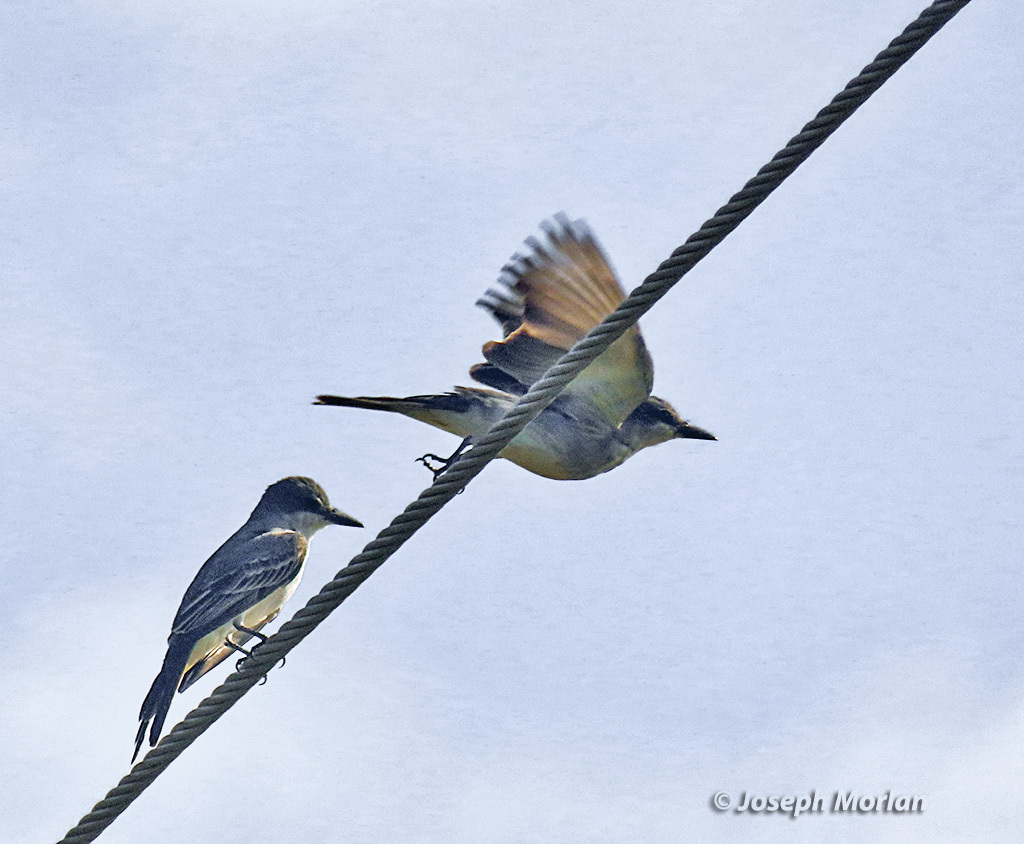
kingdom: Animalia
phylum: Chordata
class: Aves
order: Passeriformes
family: Tyrannidae
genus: Tyrannus
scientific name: Tyrannus dominicensis
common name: Gray kingbird
